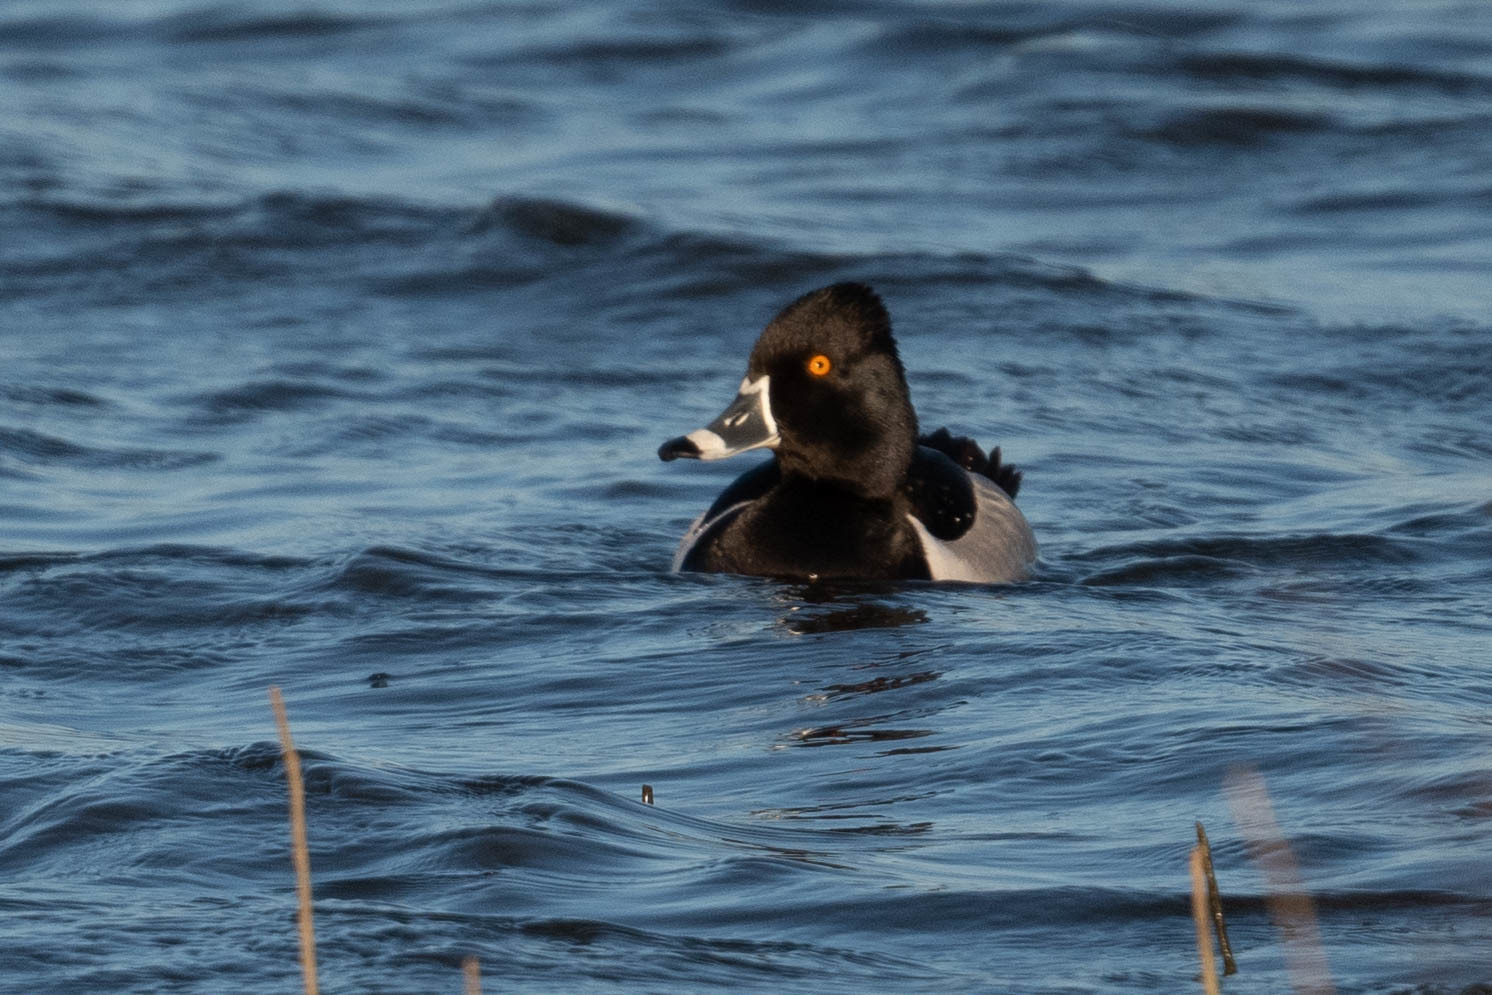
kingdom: Animalia
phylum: Chordata
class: Aves
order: Anseriformes
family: Anatidae
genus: Aythya
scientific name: Aythya collaris
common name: Ring-necked duck
